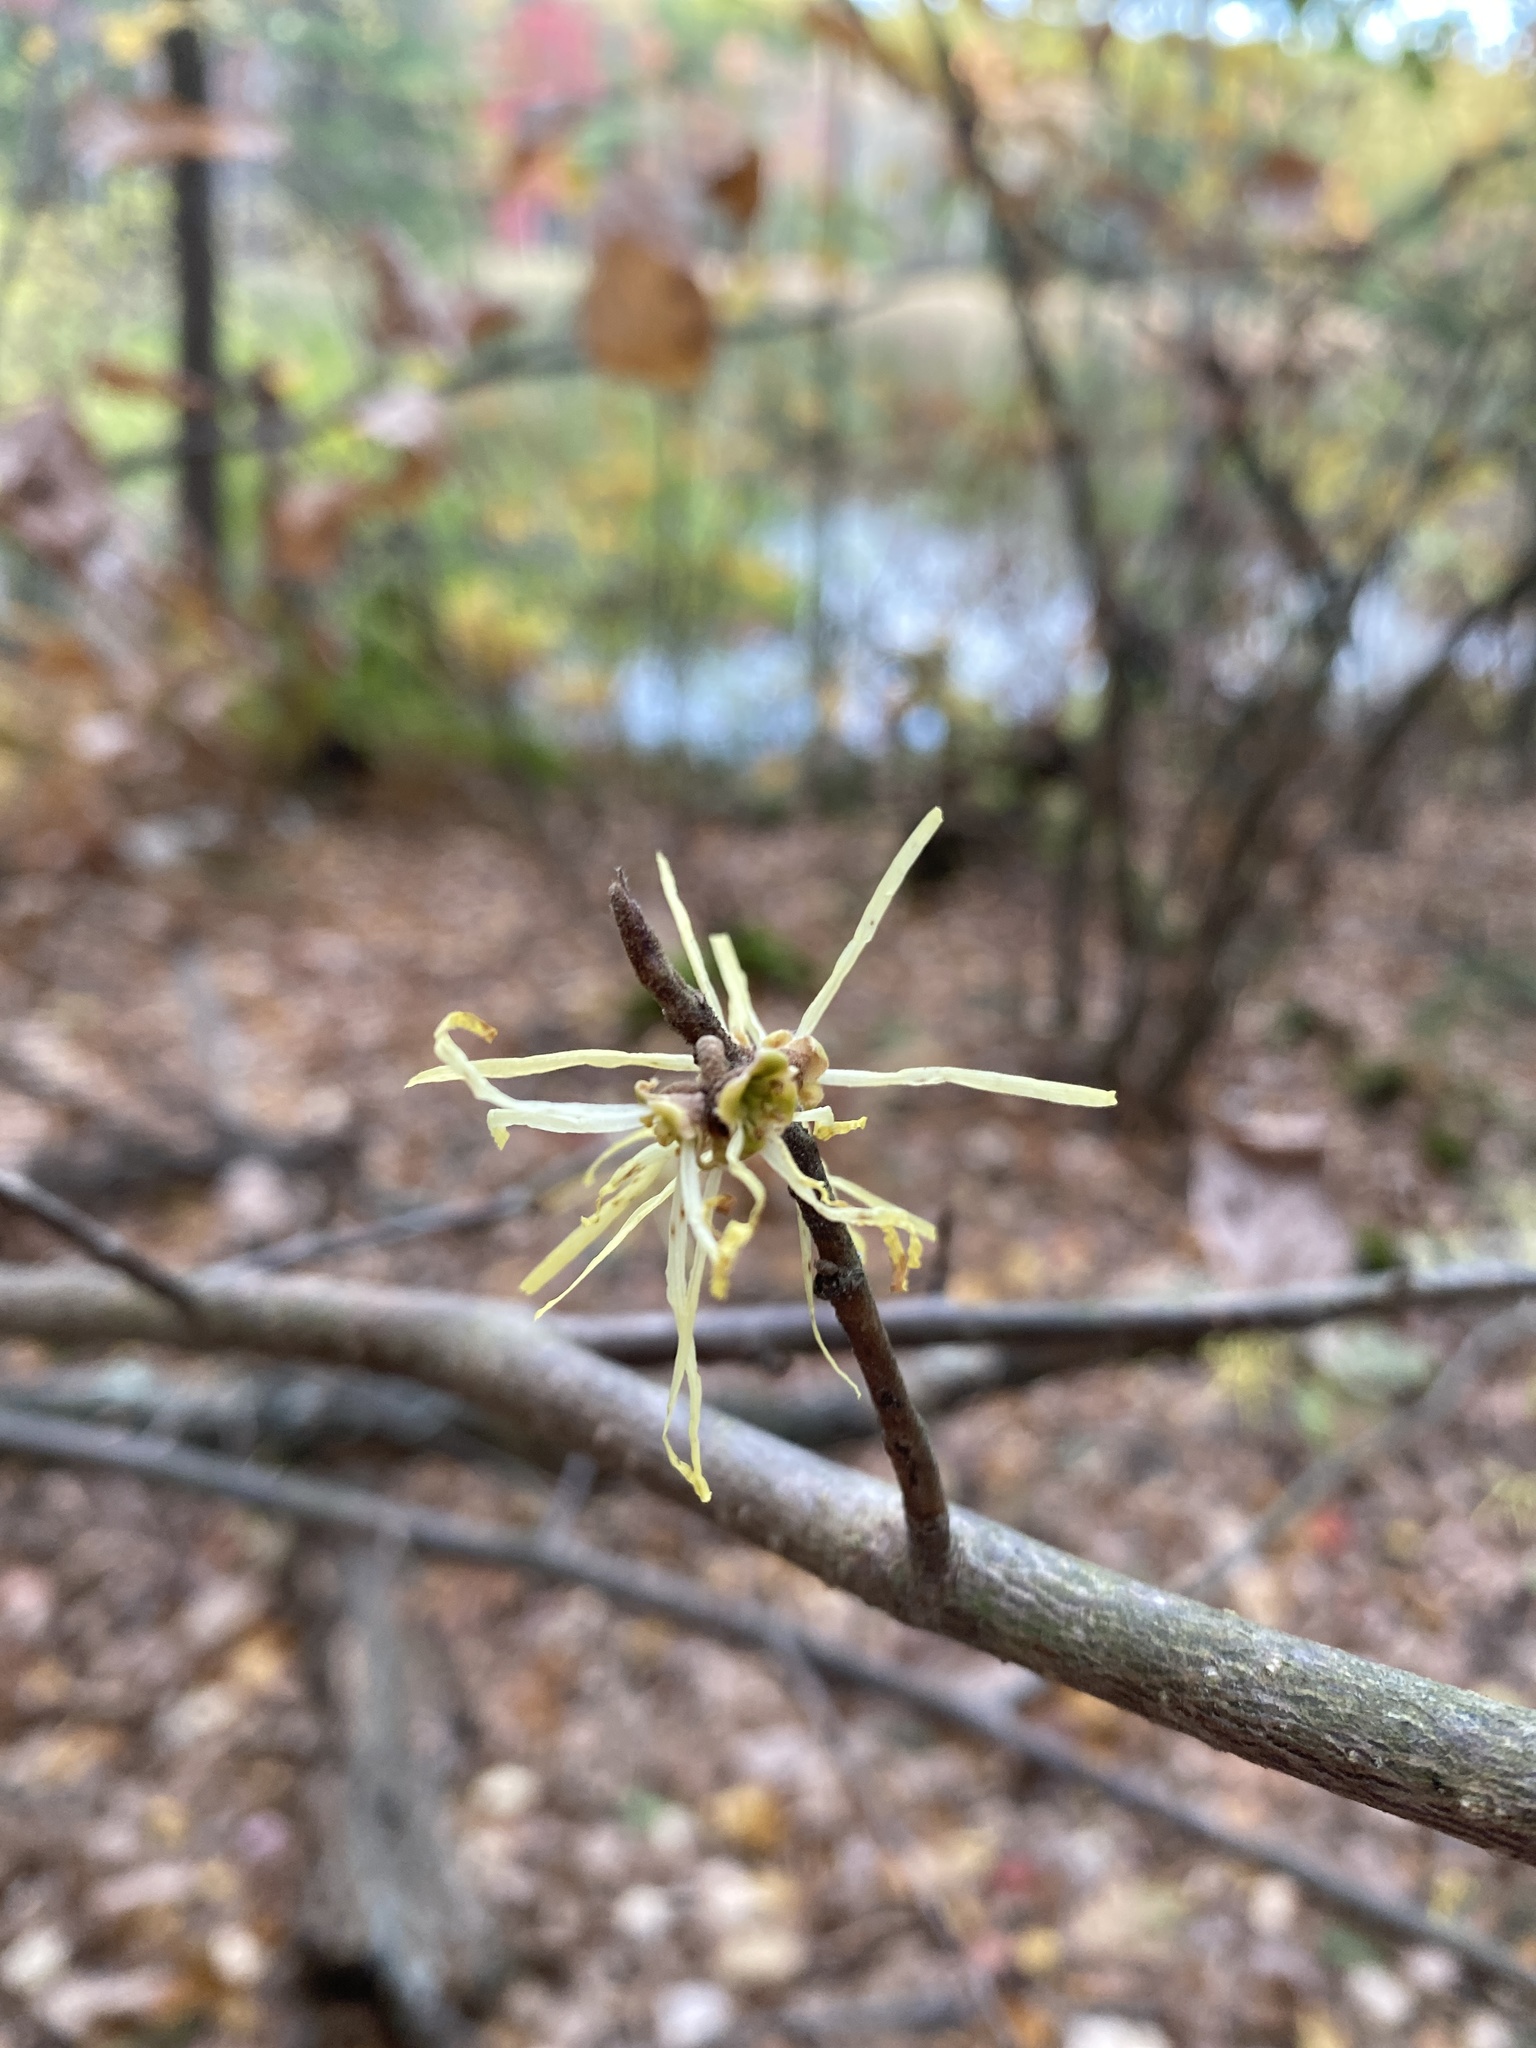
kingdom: Plantae
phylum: Tracheophyta
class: Magnoliopsida
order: Saxifragales
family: Hamamelidaceae
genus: Hamamelis
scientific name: Hamamelis virginiana
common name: Witch-hazel
